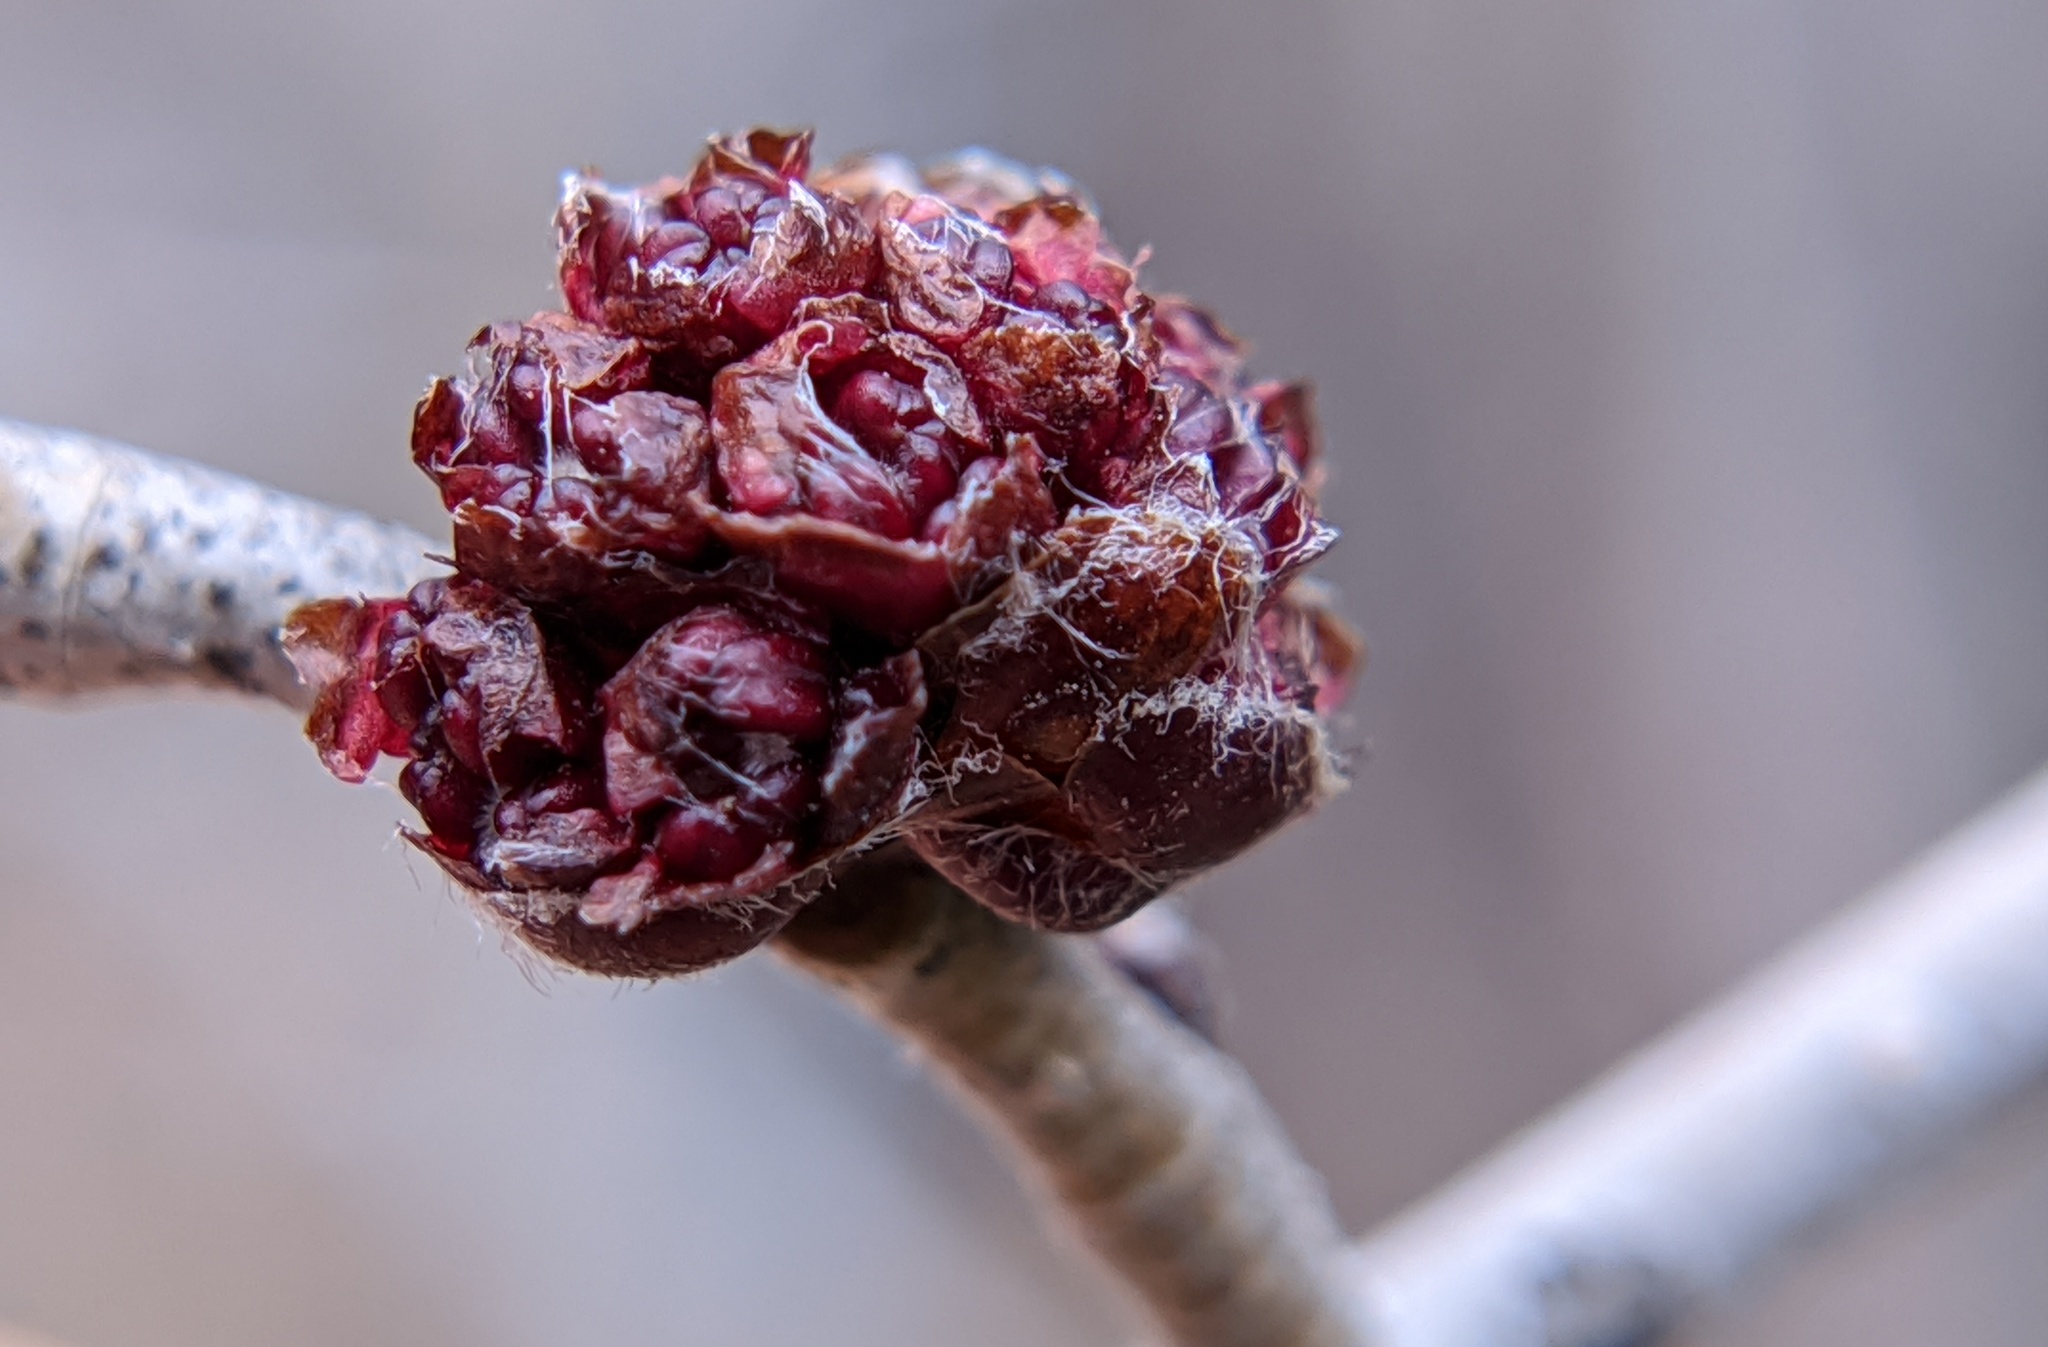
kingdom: Plantae
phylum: Tracheophyta
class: Magnoliopsida
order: Rosales
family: Ulmaceae
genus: Ulmus
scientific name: Ulmus pumila
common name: Siberian elm
